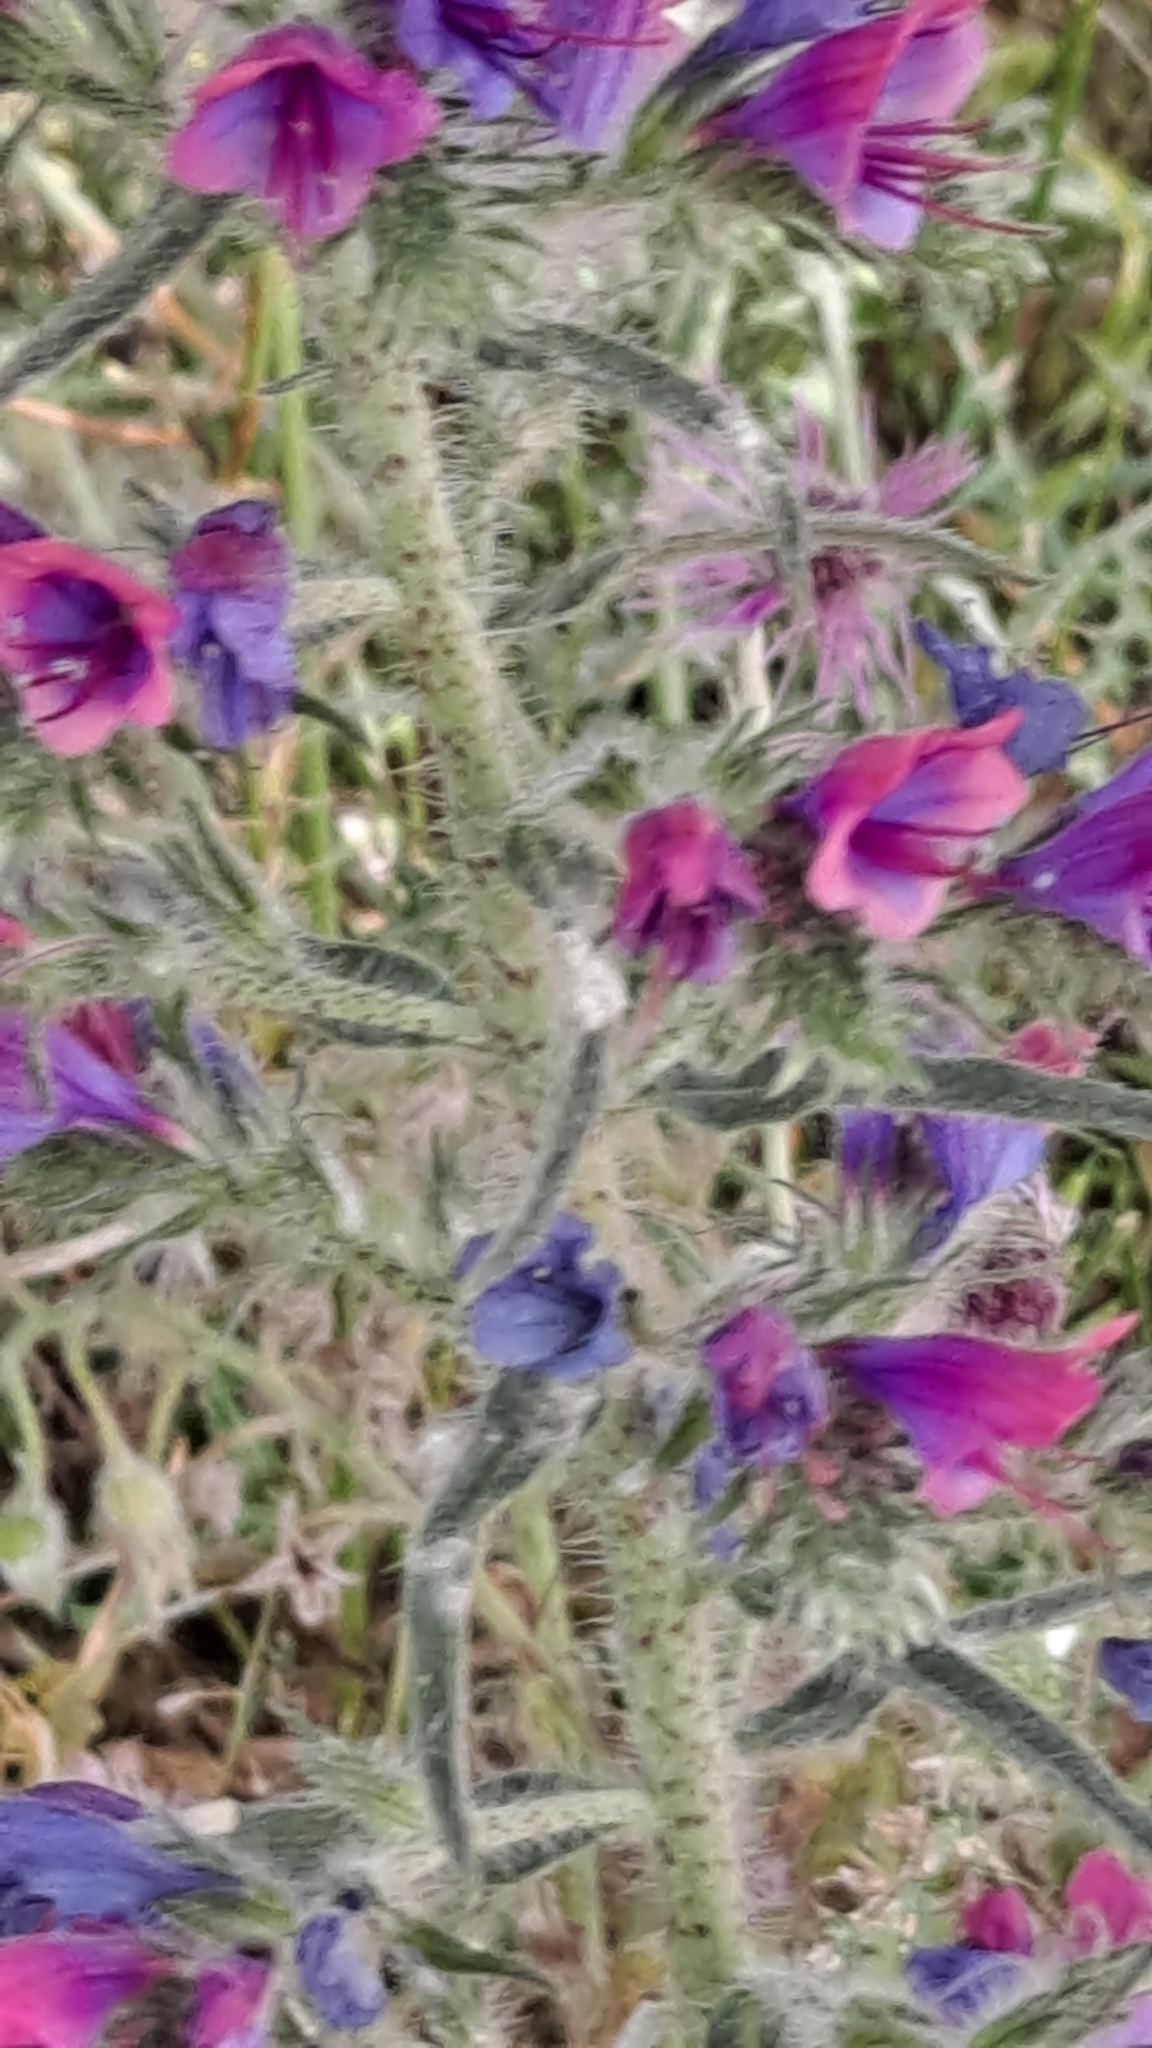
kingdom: Plantae
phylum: Tracheophyta
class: Magnoliopsida
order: Boraginales
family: Boraginaceae
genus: Echium
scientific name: Echium vulgare
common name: Common viper's bugloss
